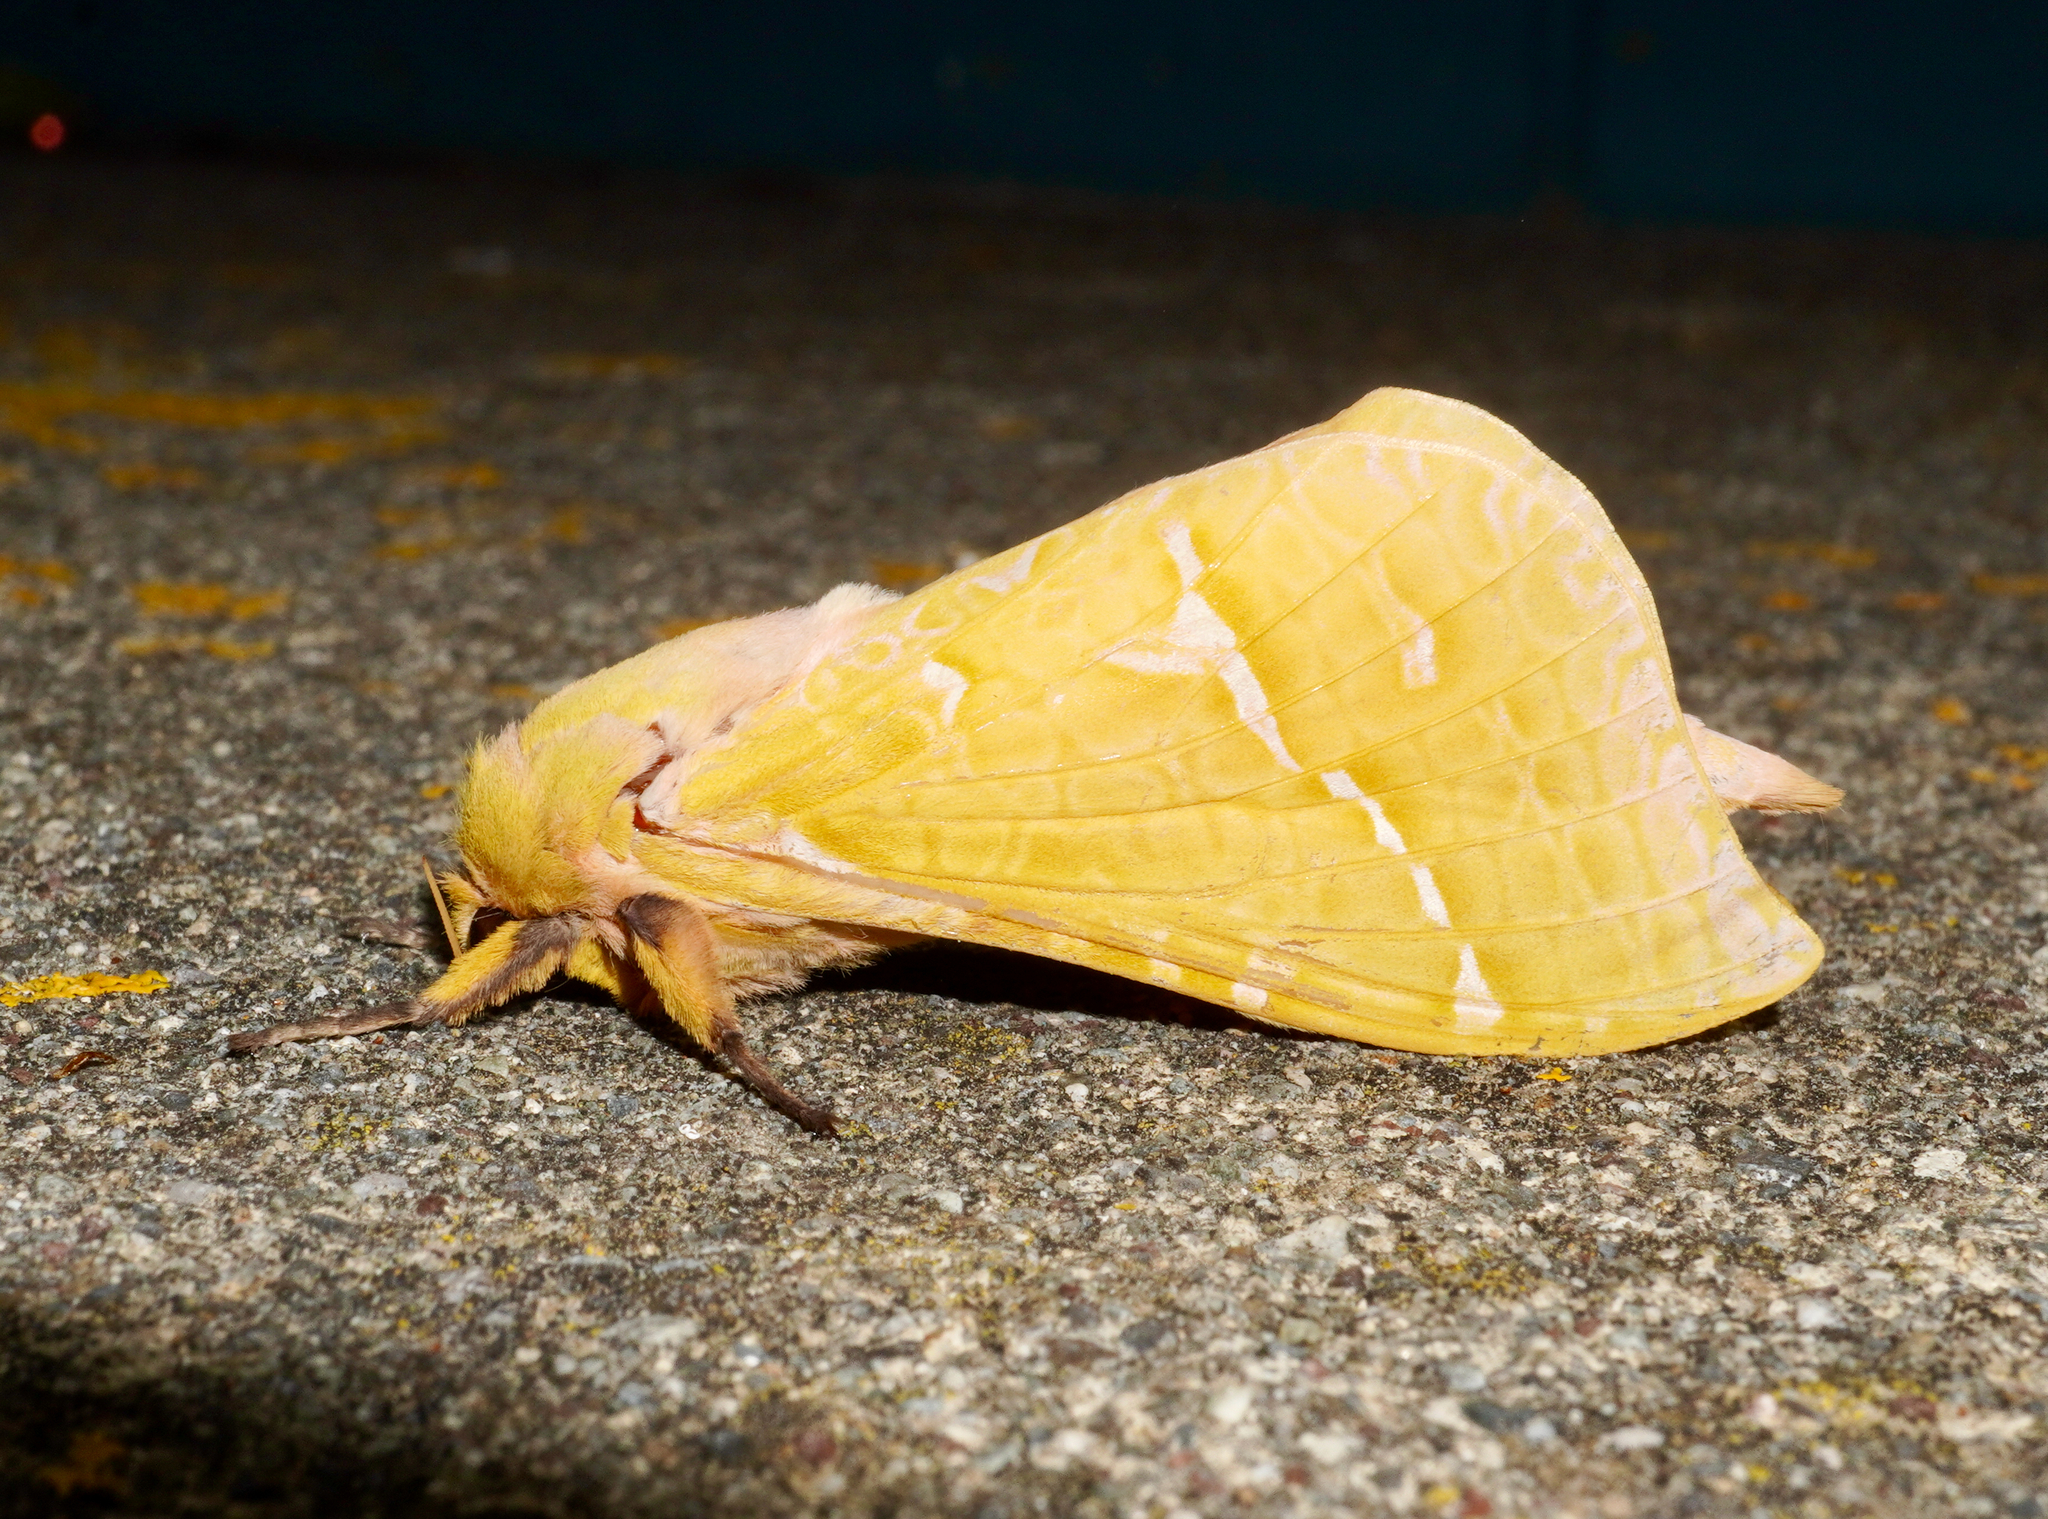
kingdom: Animalia
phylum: Arthropoda
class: Insecta
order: Lepidoptera
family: Hepialidae
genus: Aenetus
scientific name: Aenetus virescens
